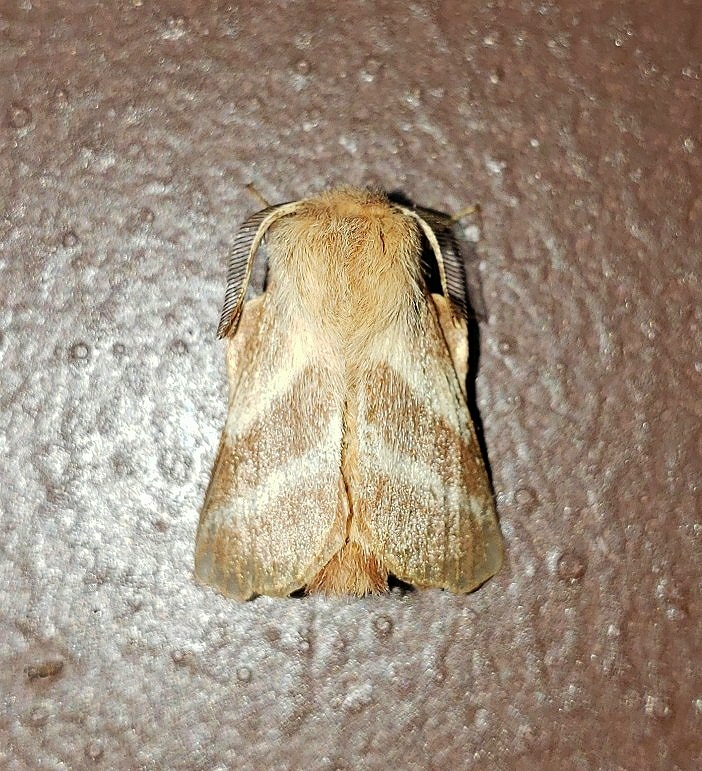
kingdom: Animalia
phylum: Arthropoda
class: Insecta
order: Lepidoptera
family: Lasiocampidae
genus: Malacosoma
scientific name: Malacosoma americana
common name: Eastern tent caterpillar moth
